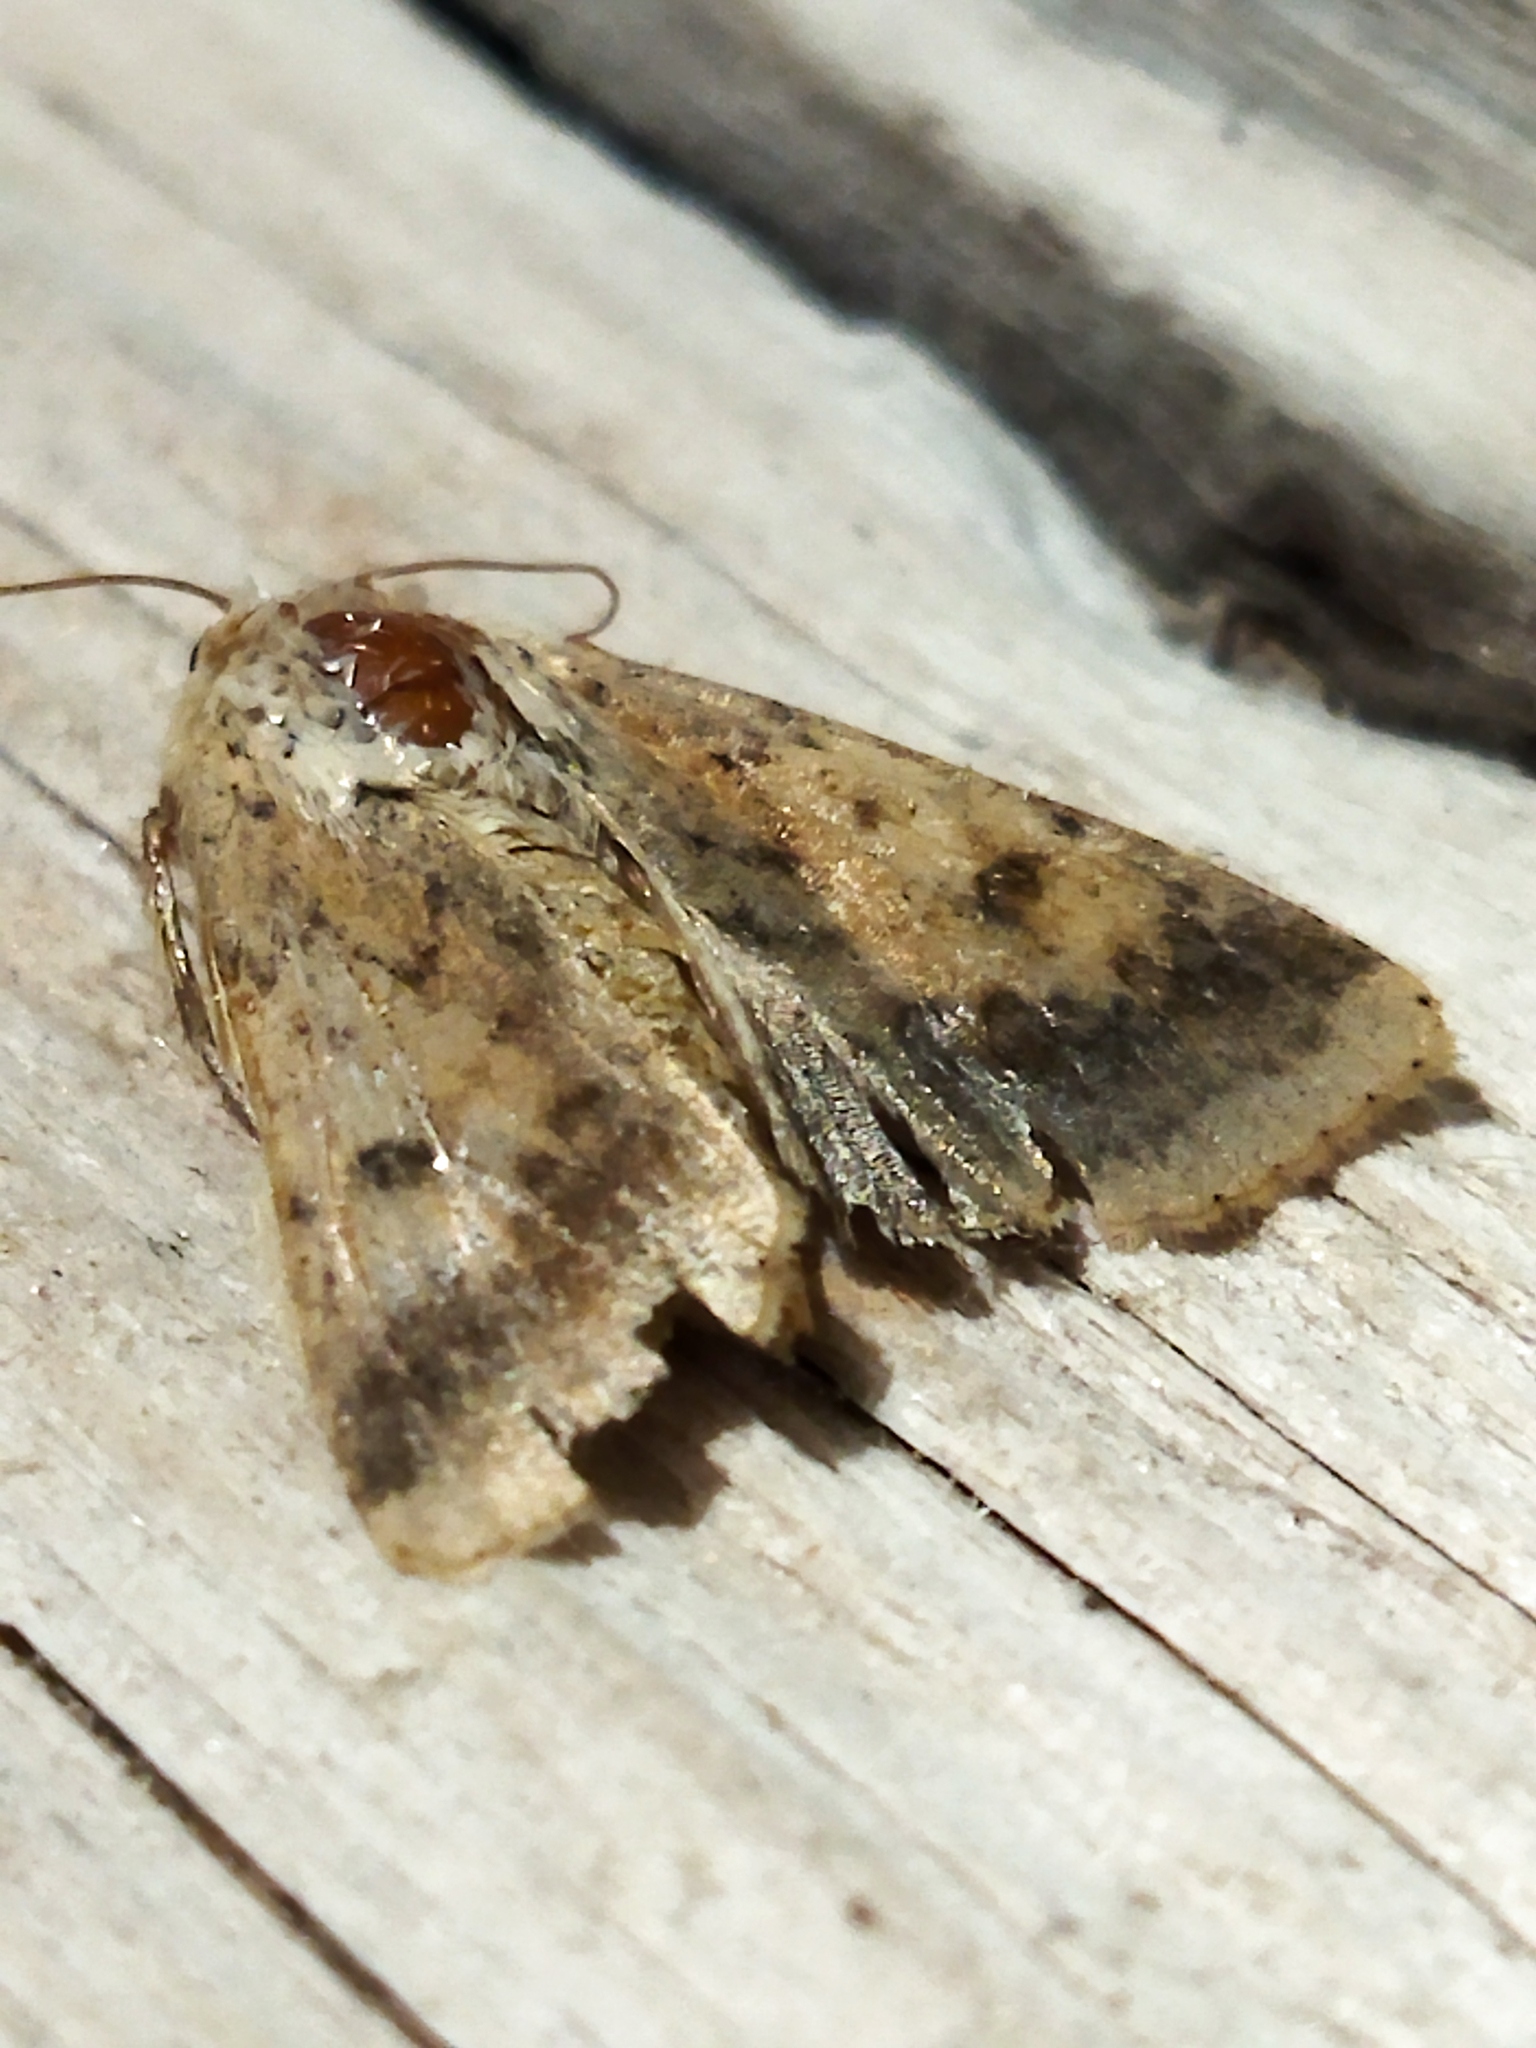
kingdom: Animalia
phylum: Arthropoda
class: Insecta
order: Lepidoptera
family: Noctuidae
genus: Helicoverpa
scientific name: Helicoverpa armigera
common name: Cotton bollworm
